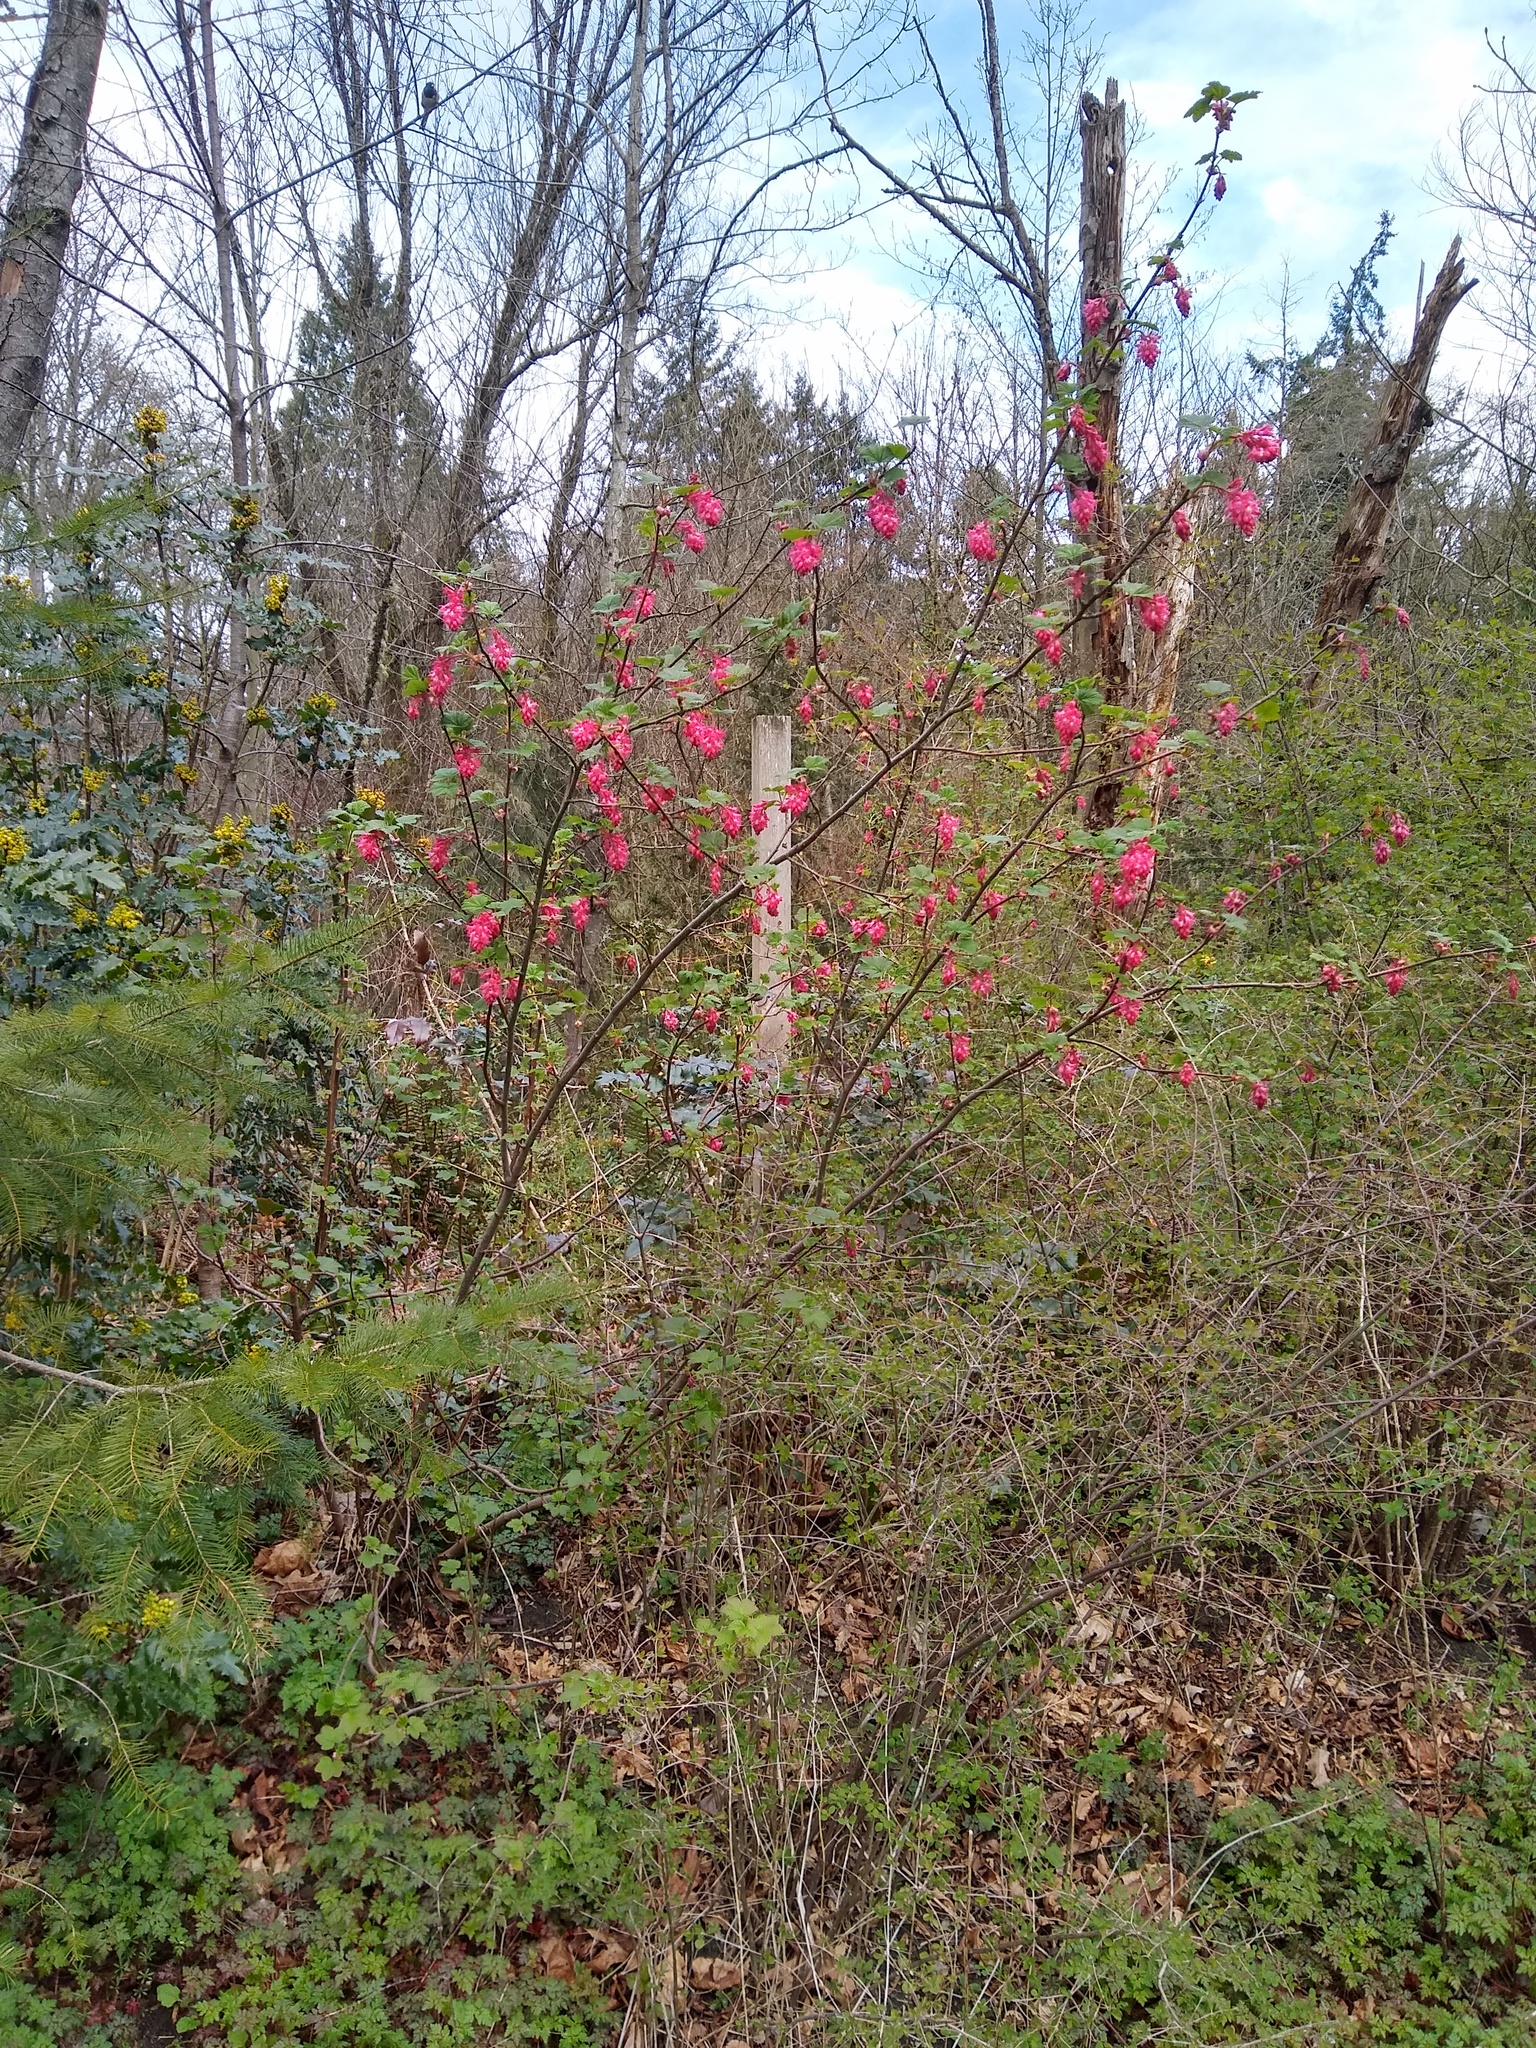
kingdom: Plantae
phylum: Tracheophyta
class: Magnoliopsida
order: Saxifragales
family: Grossulariaceae
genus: Ribes
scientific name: Ribes sanguineum
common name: Flowering currant
